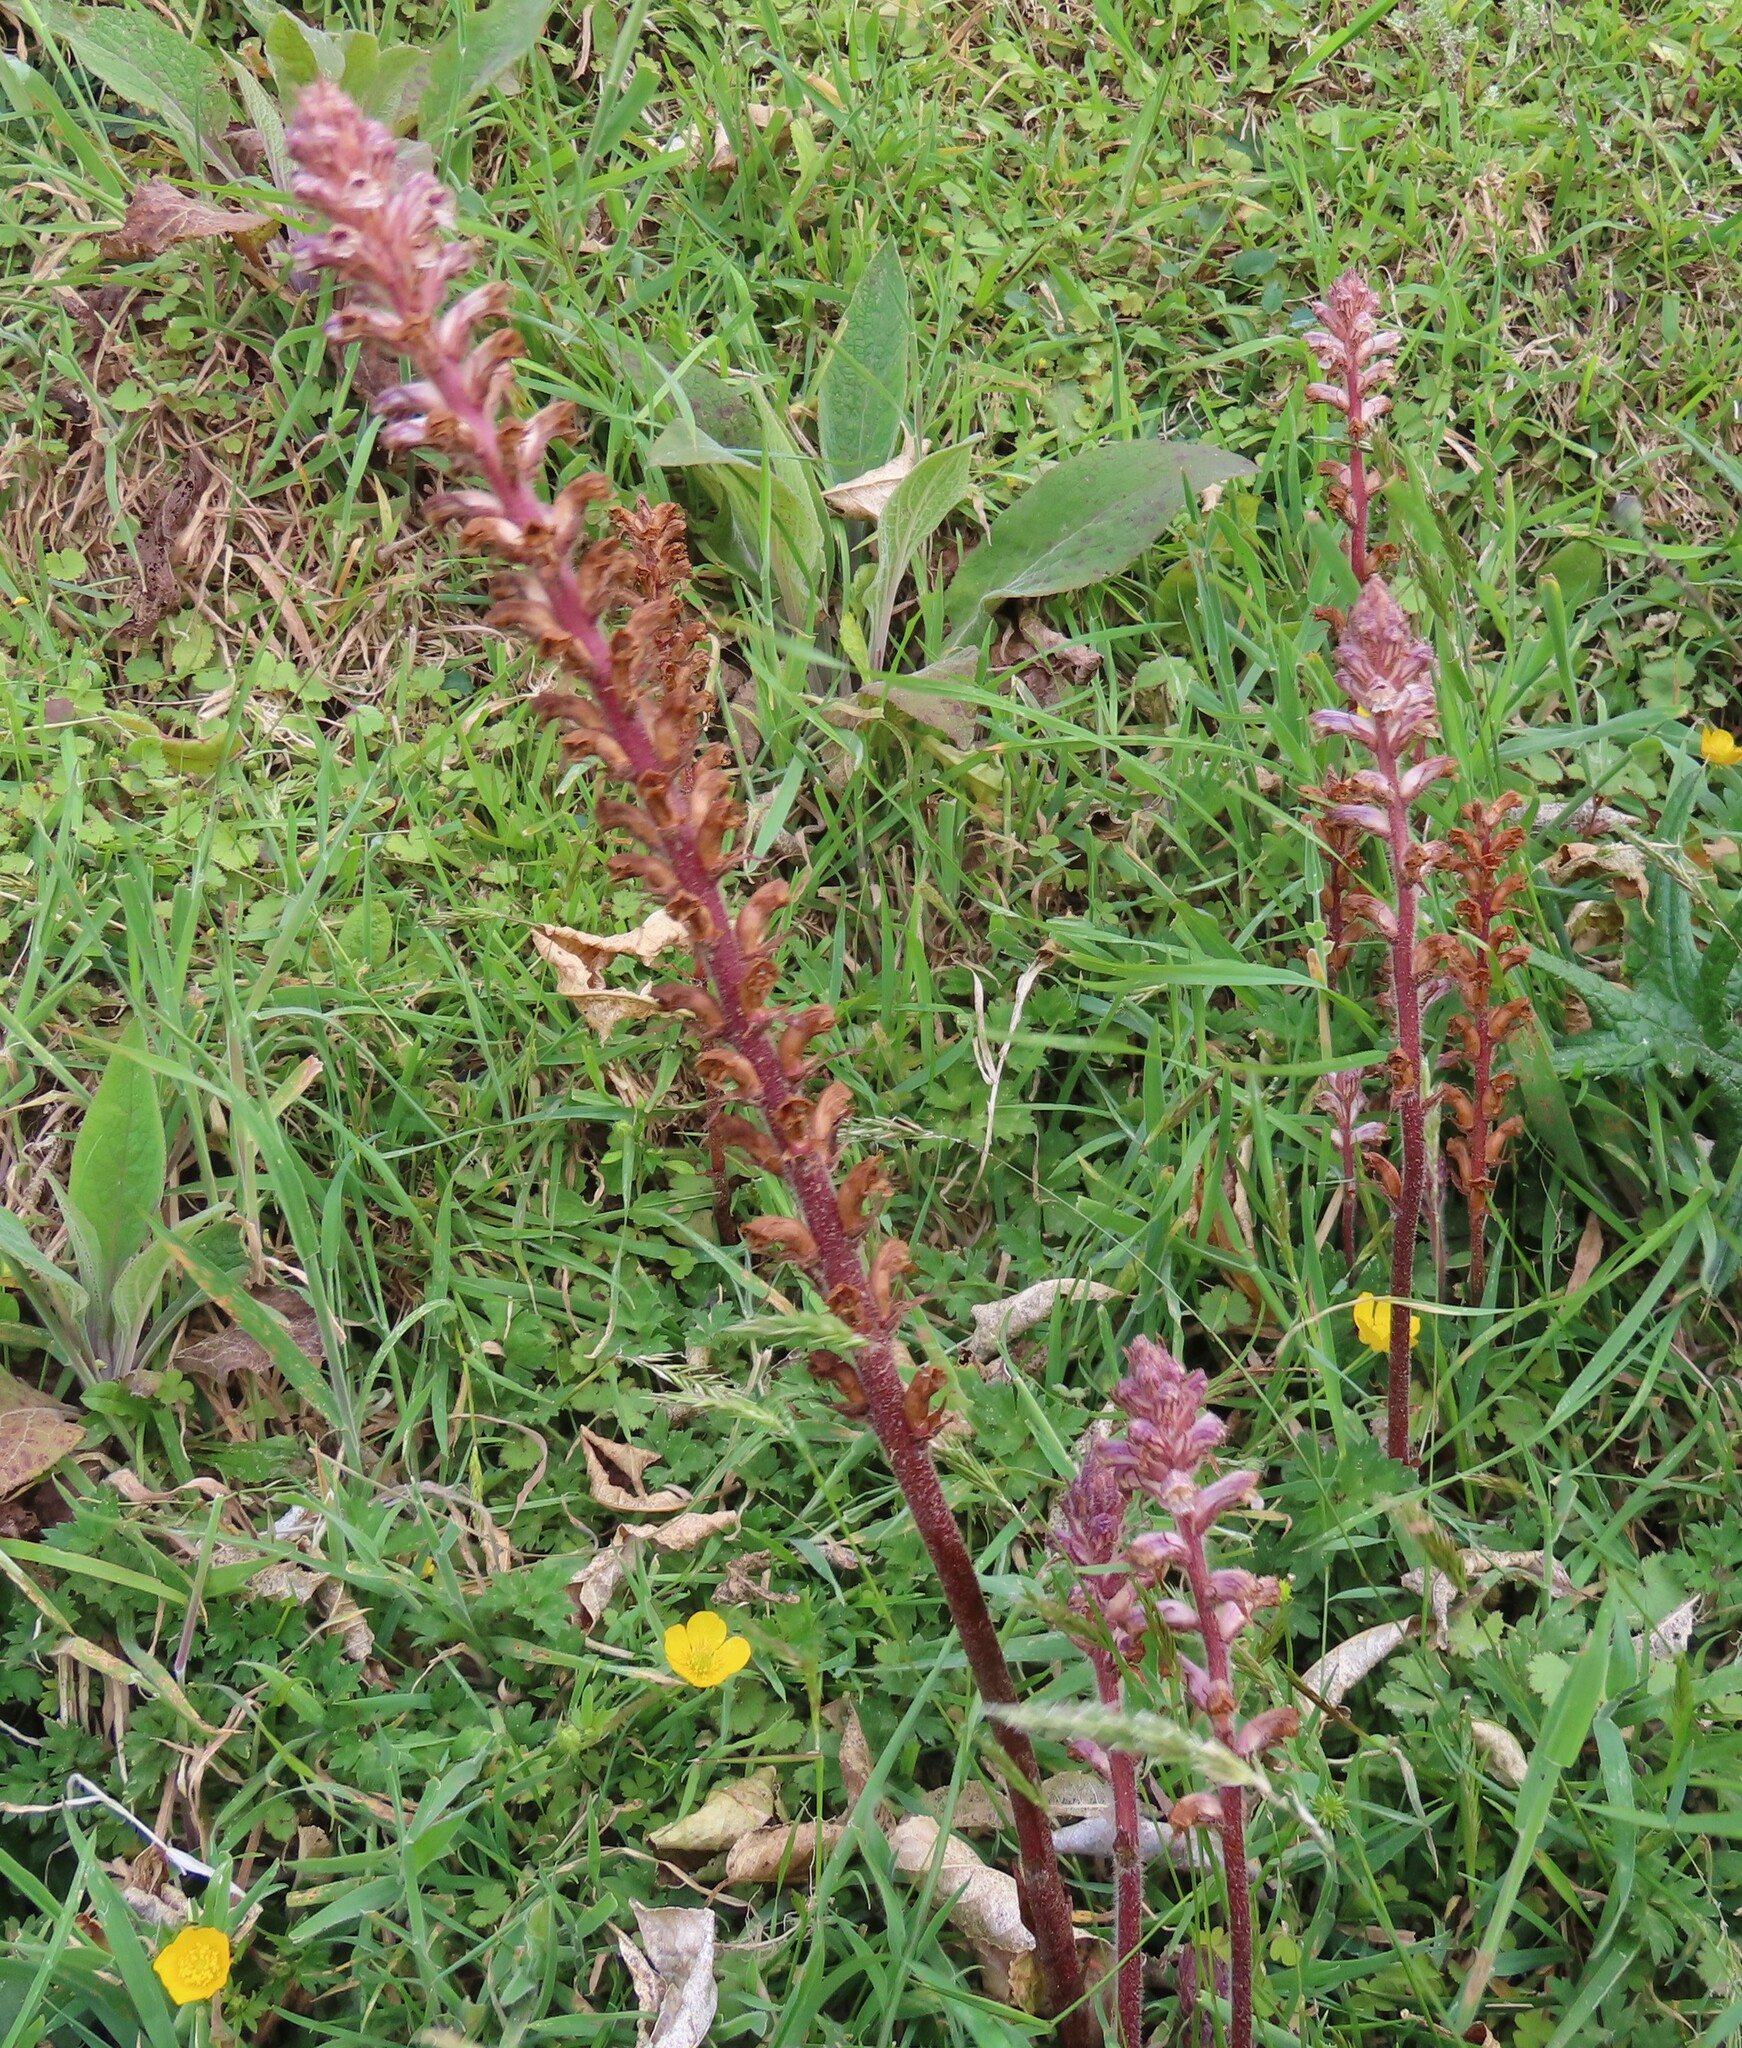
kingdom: Plantae
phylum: Tracheophyta
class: Magnoliopsida
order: Lamiales
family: Orobanchaceae
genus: Orobanche
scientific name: Orobanche minor
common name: Common broomrape
